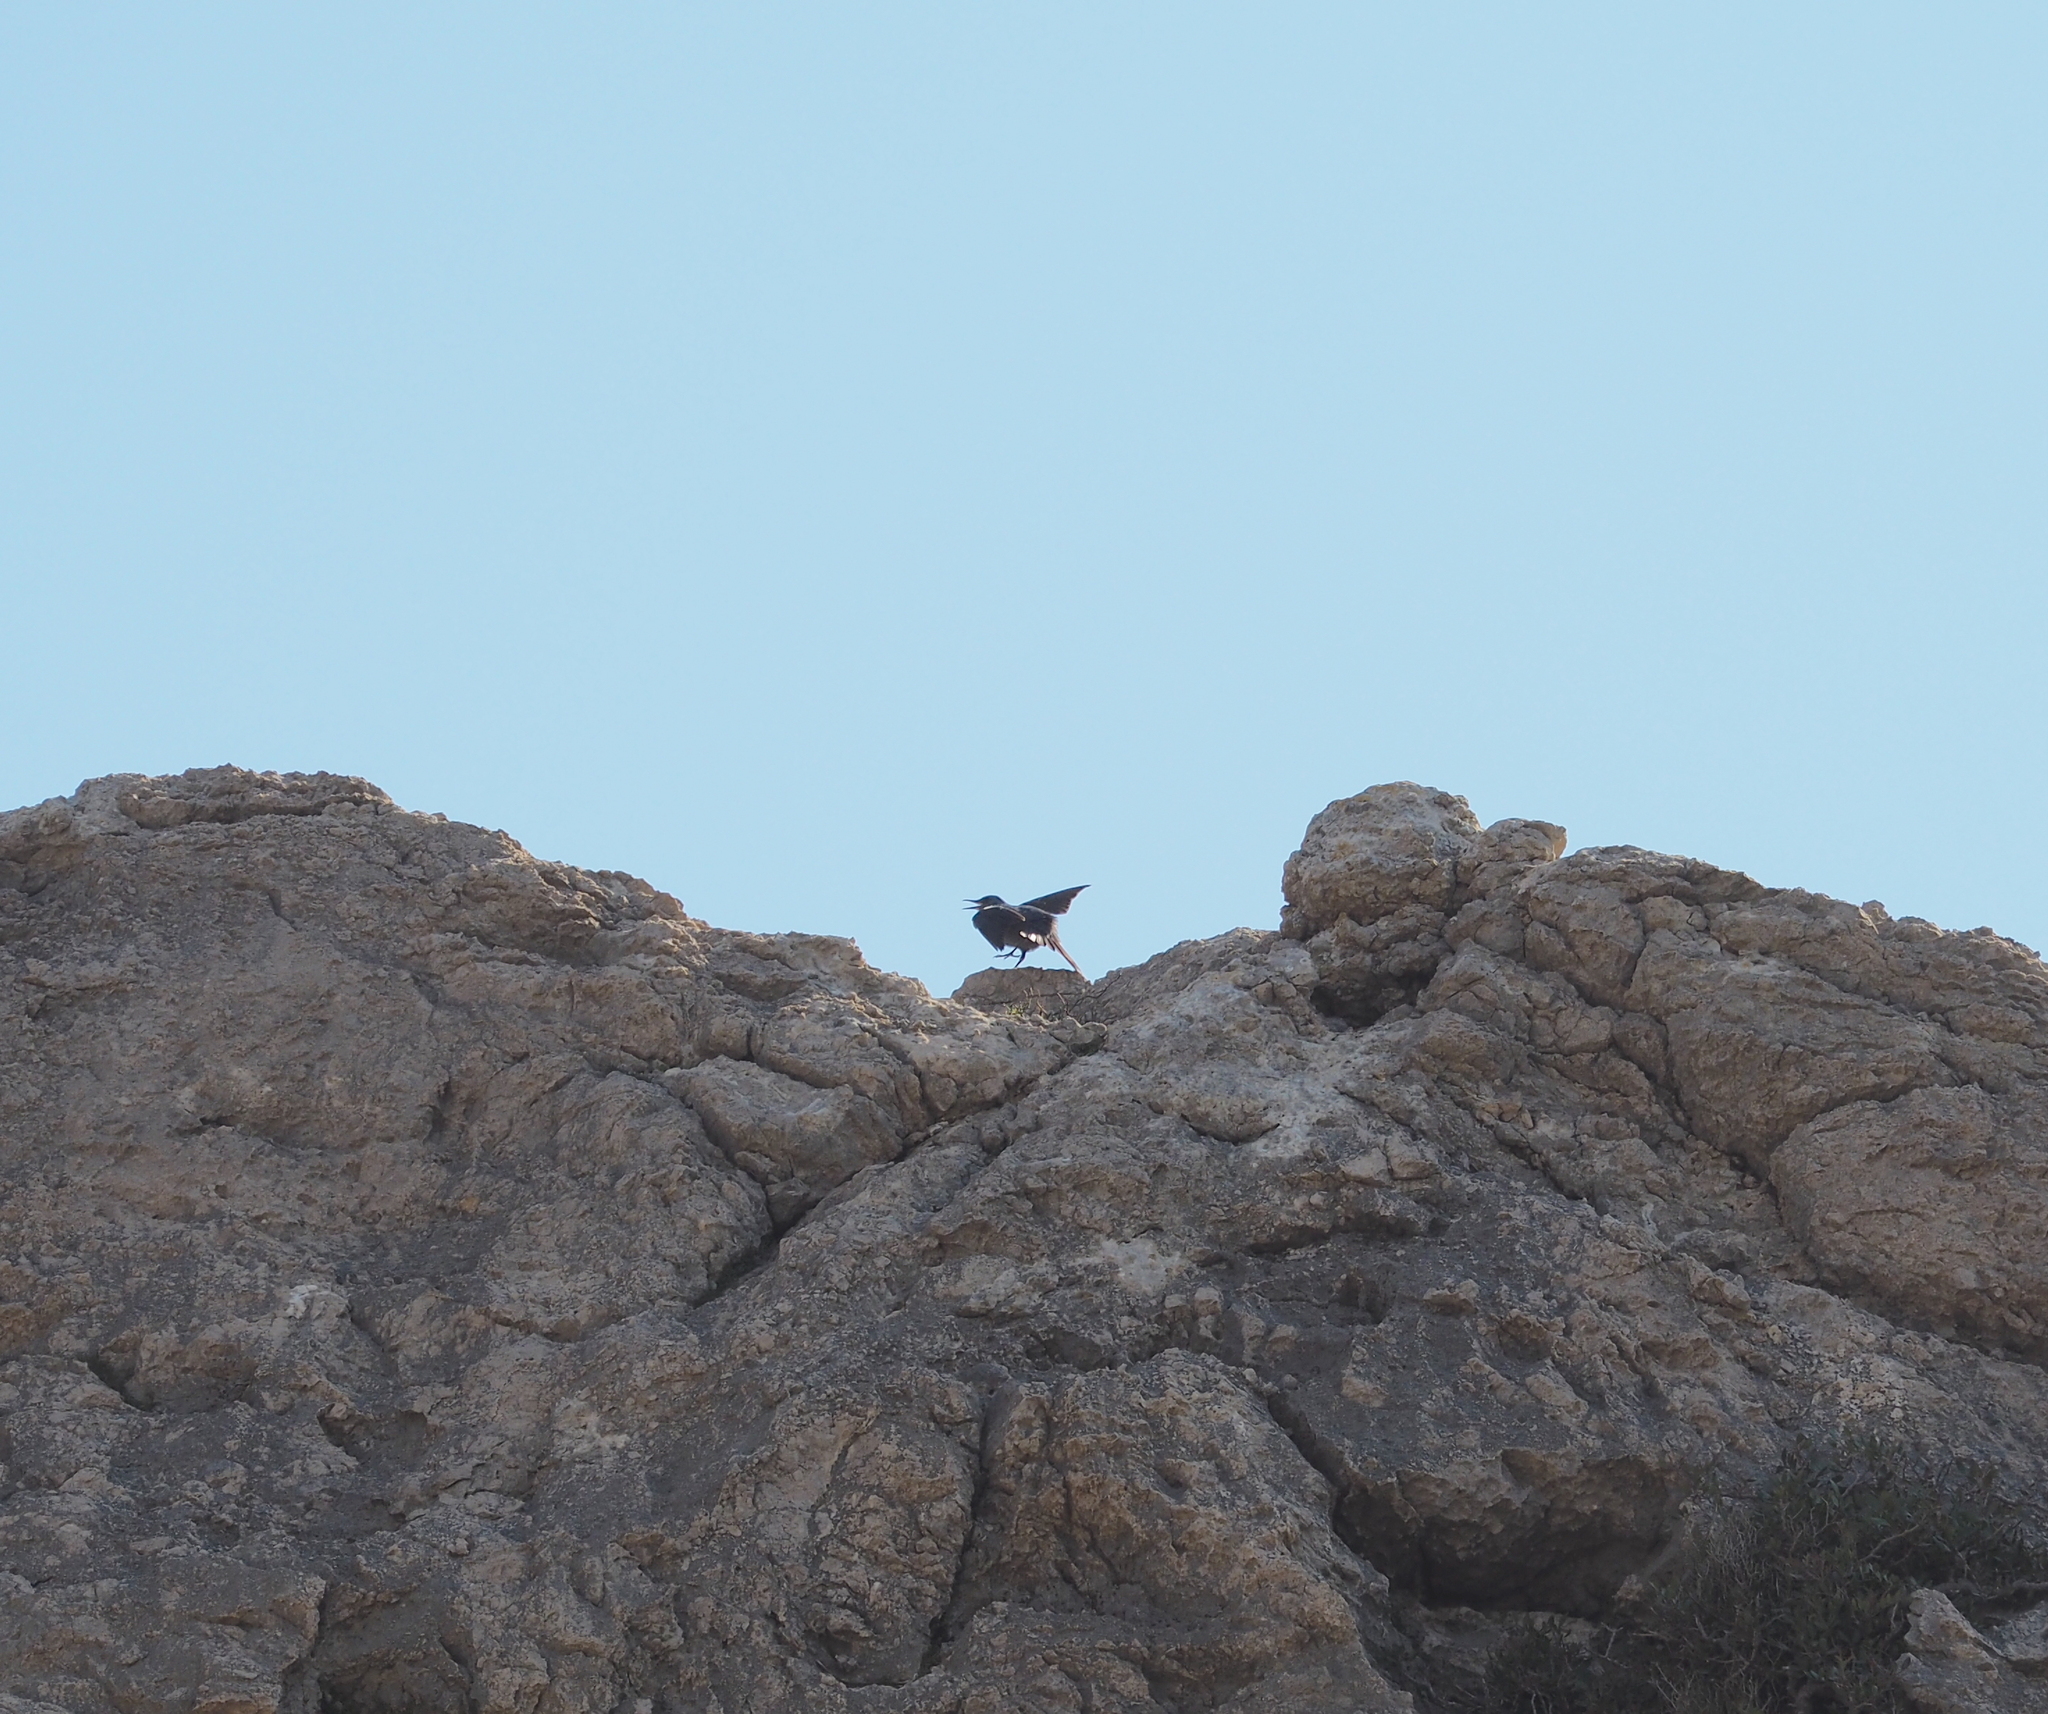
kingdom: Animalia
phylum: Chordata
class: Aves
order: Passeriformes
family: Muscicapidae
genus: Monticola
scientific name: Monticola solitarius
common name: Blue rock thrush
